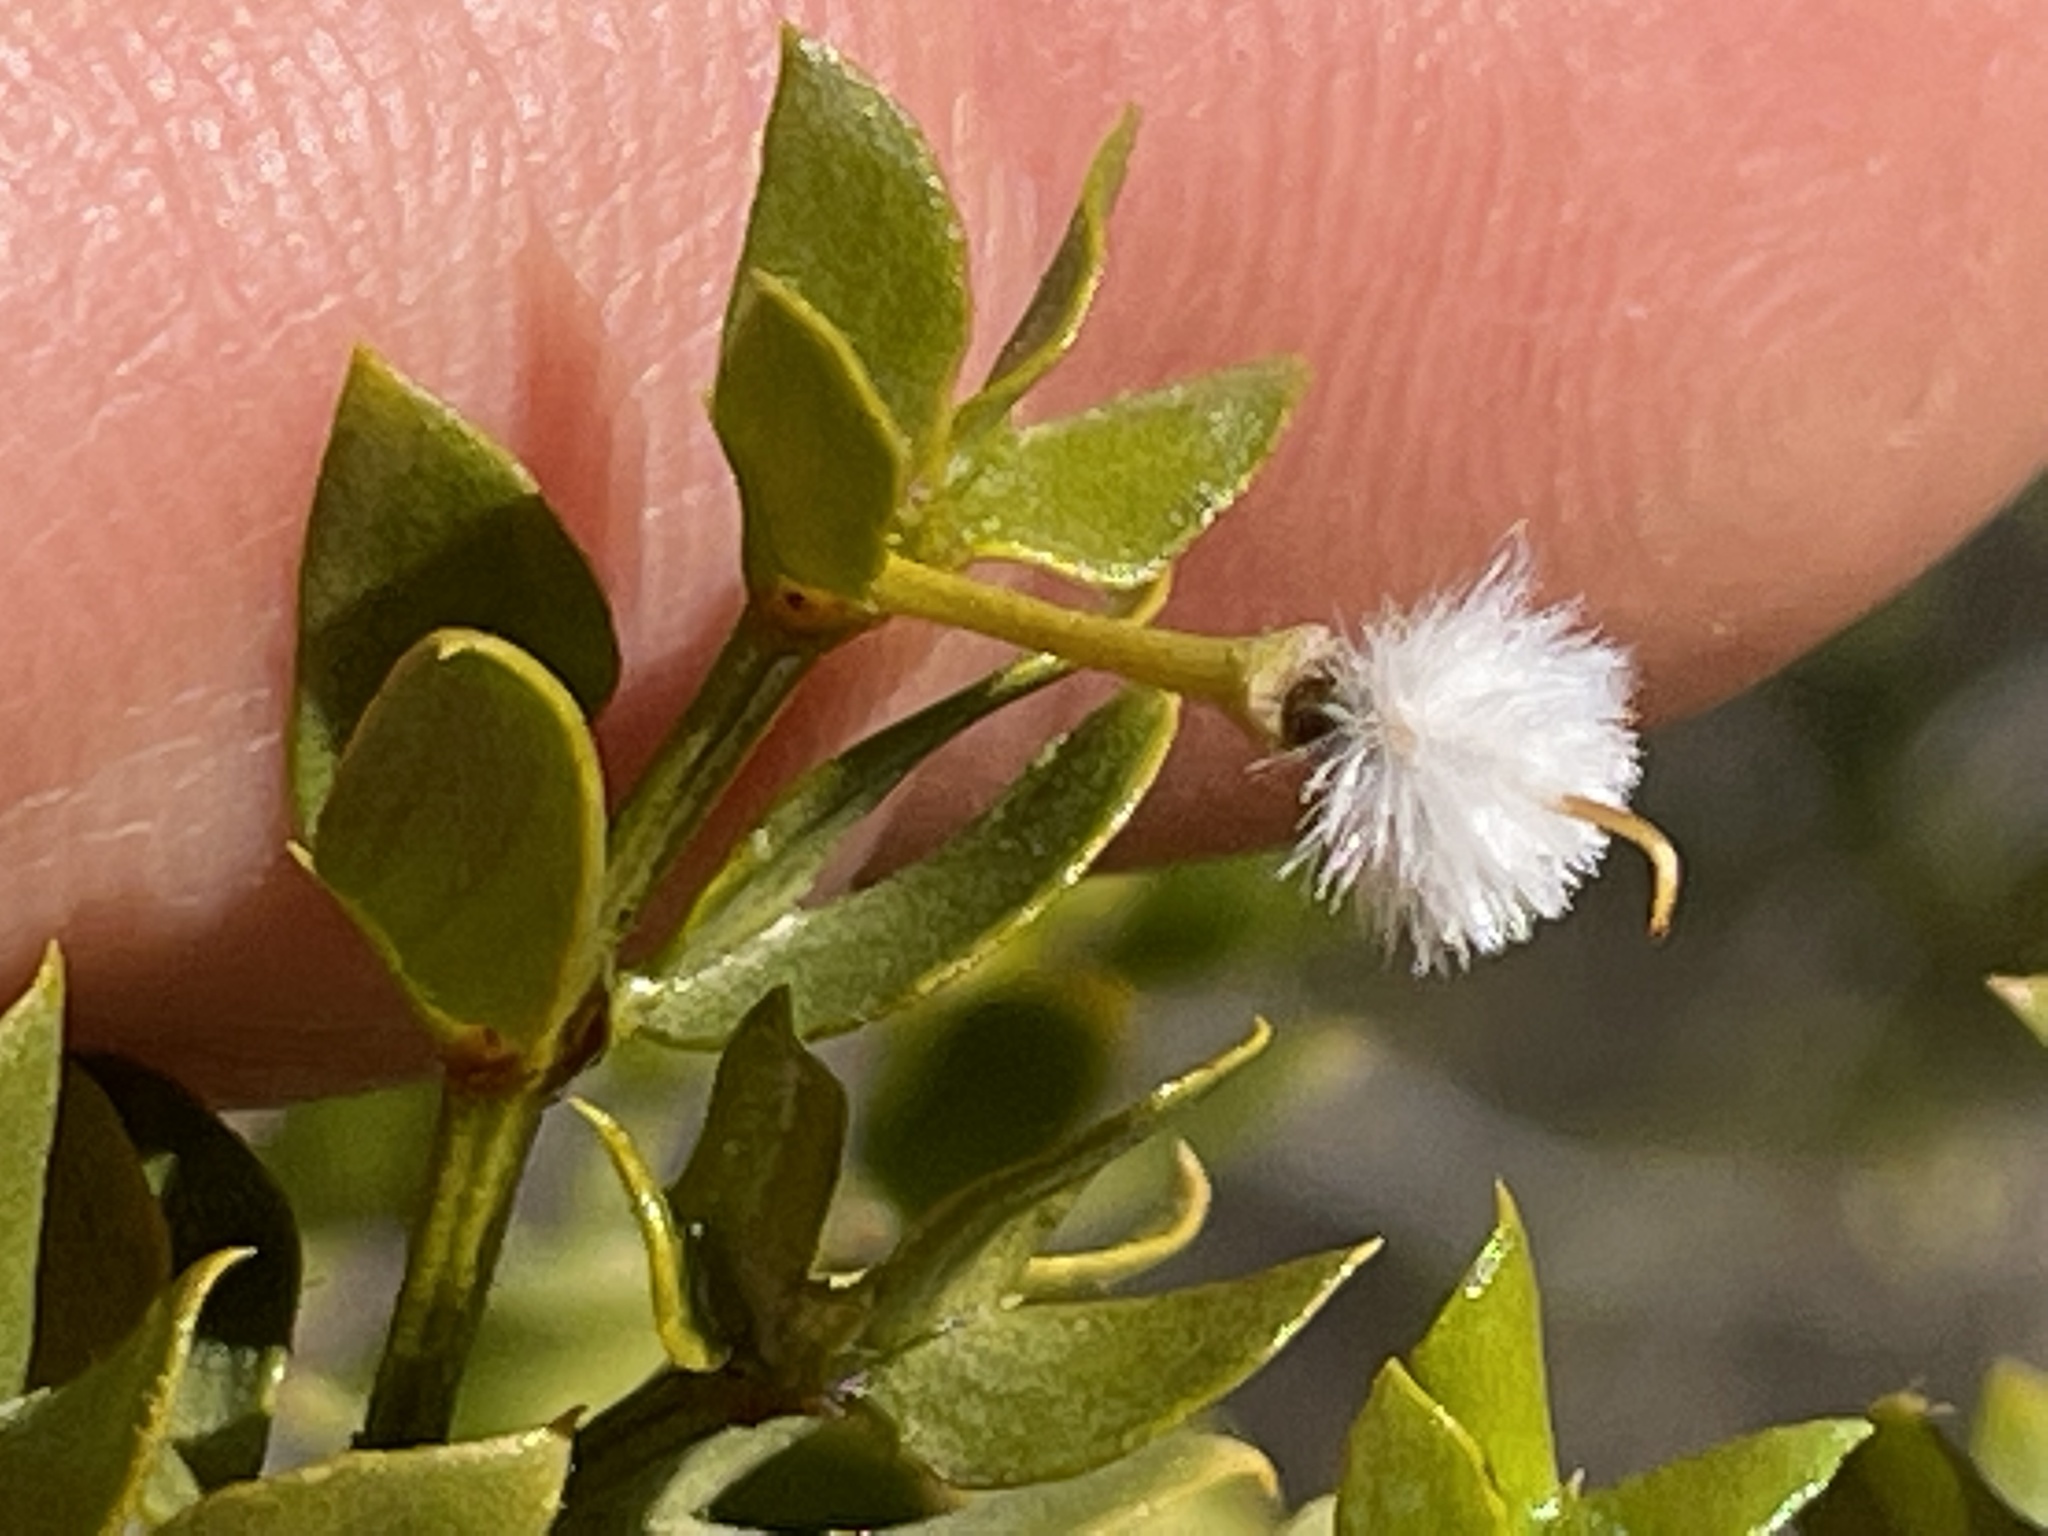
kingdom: Animalia
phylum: Arthropoda
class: Insecta
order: Diptera
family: Cecidomyiidae
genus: Asphondylia
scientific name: Asphondylia auripila
